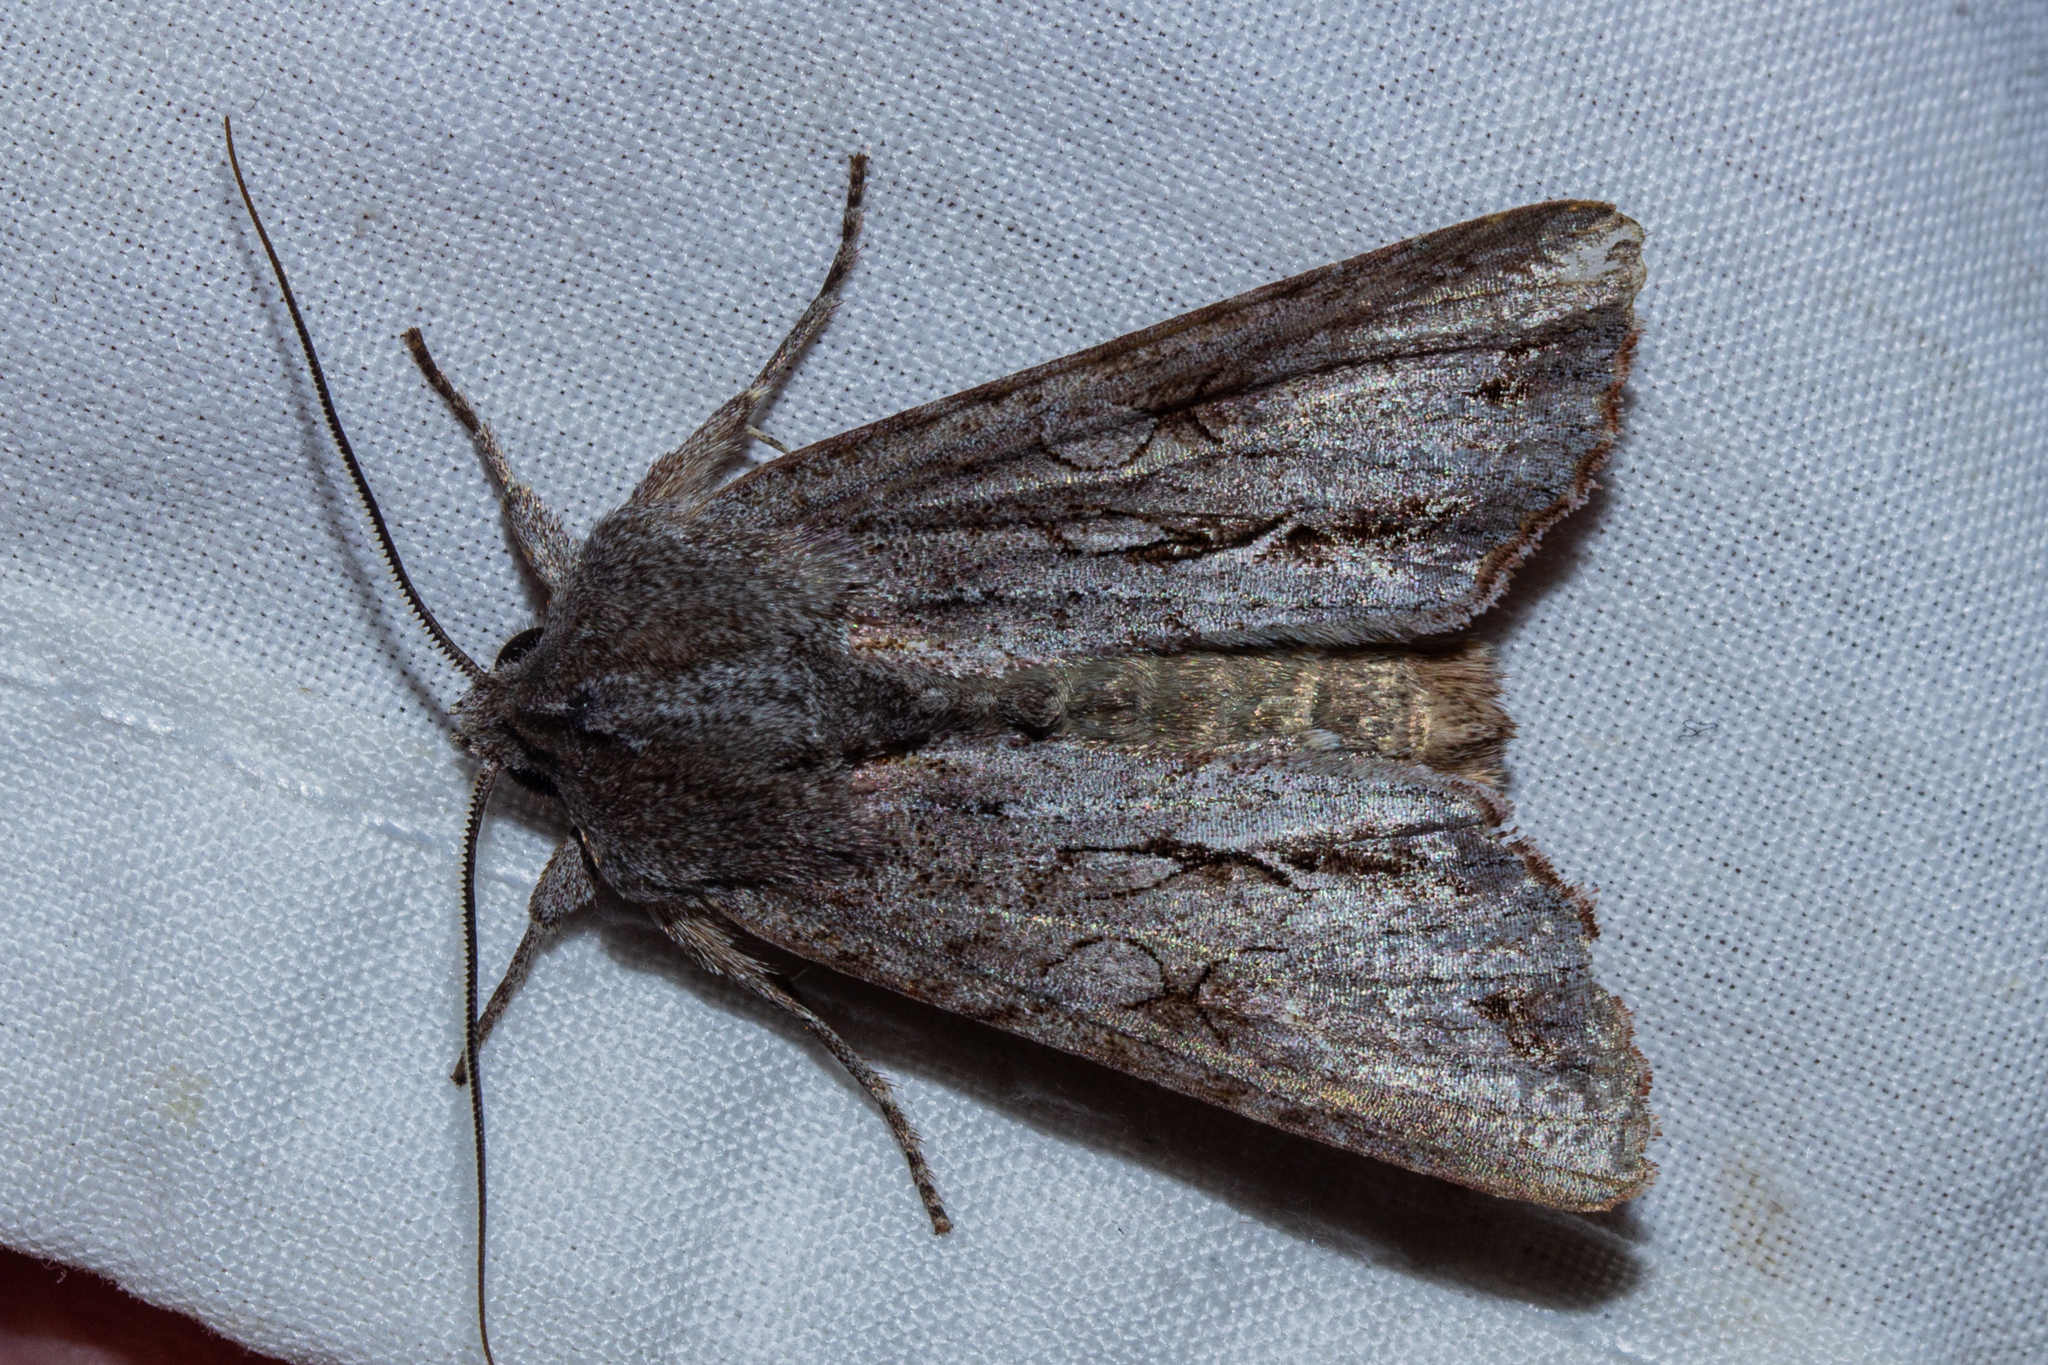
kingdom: Animalia
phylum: Arthropoda
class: Insecta
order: Lepidoptera
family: Noctuidae
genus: Ichneutica
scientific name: Ichneutica
